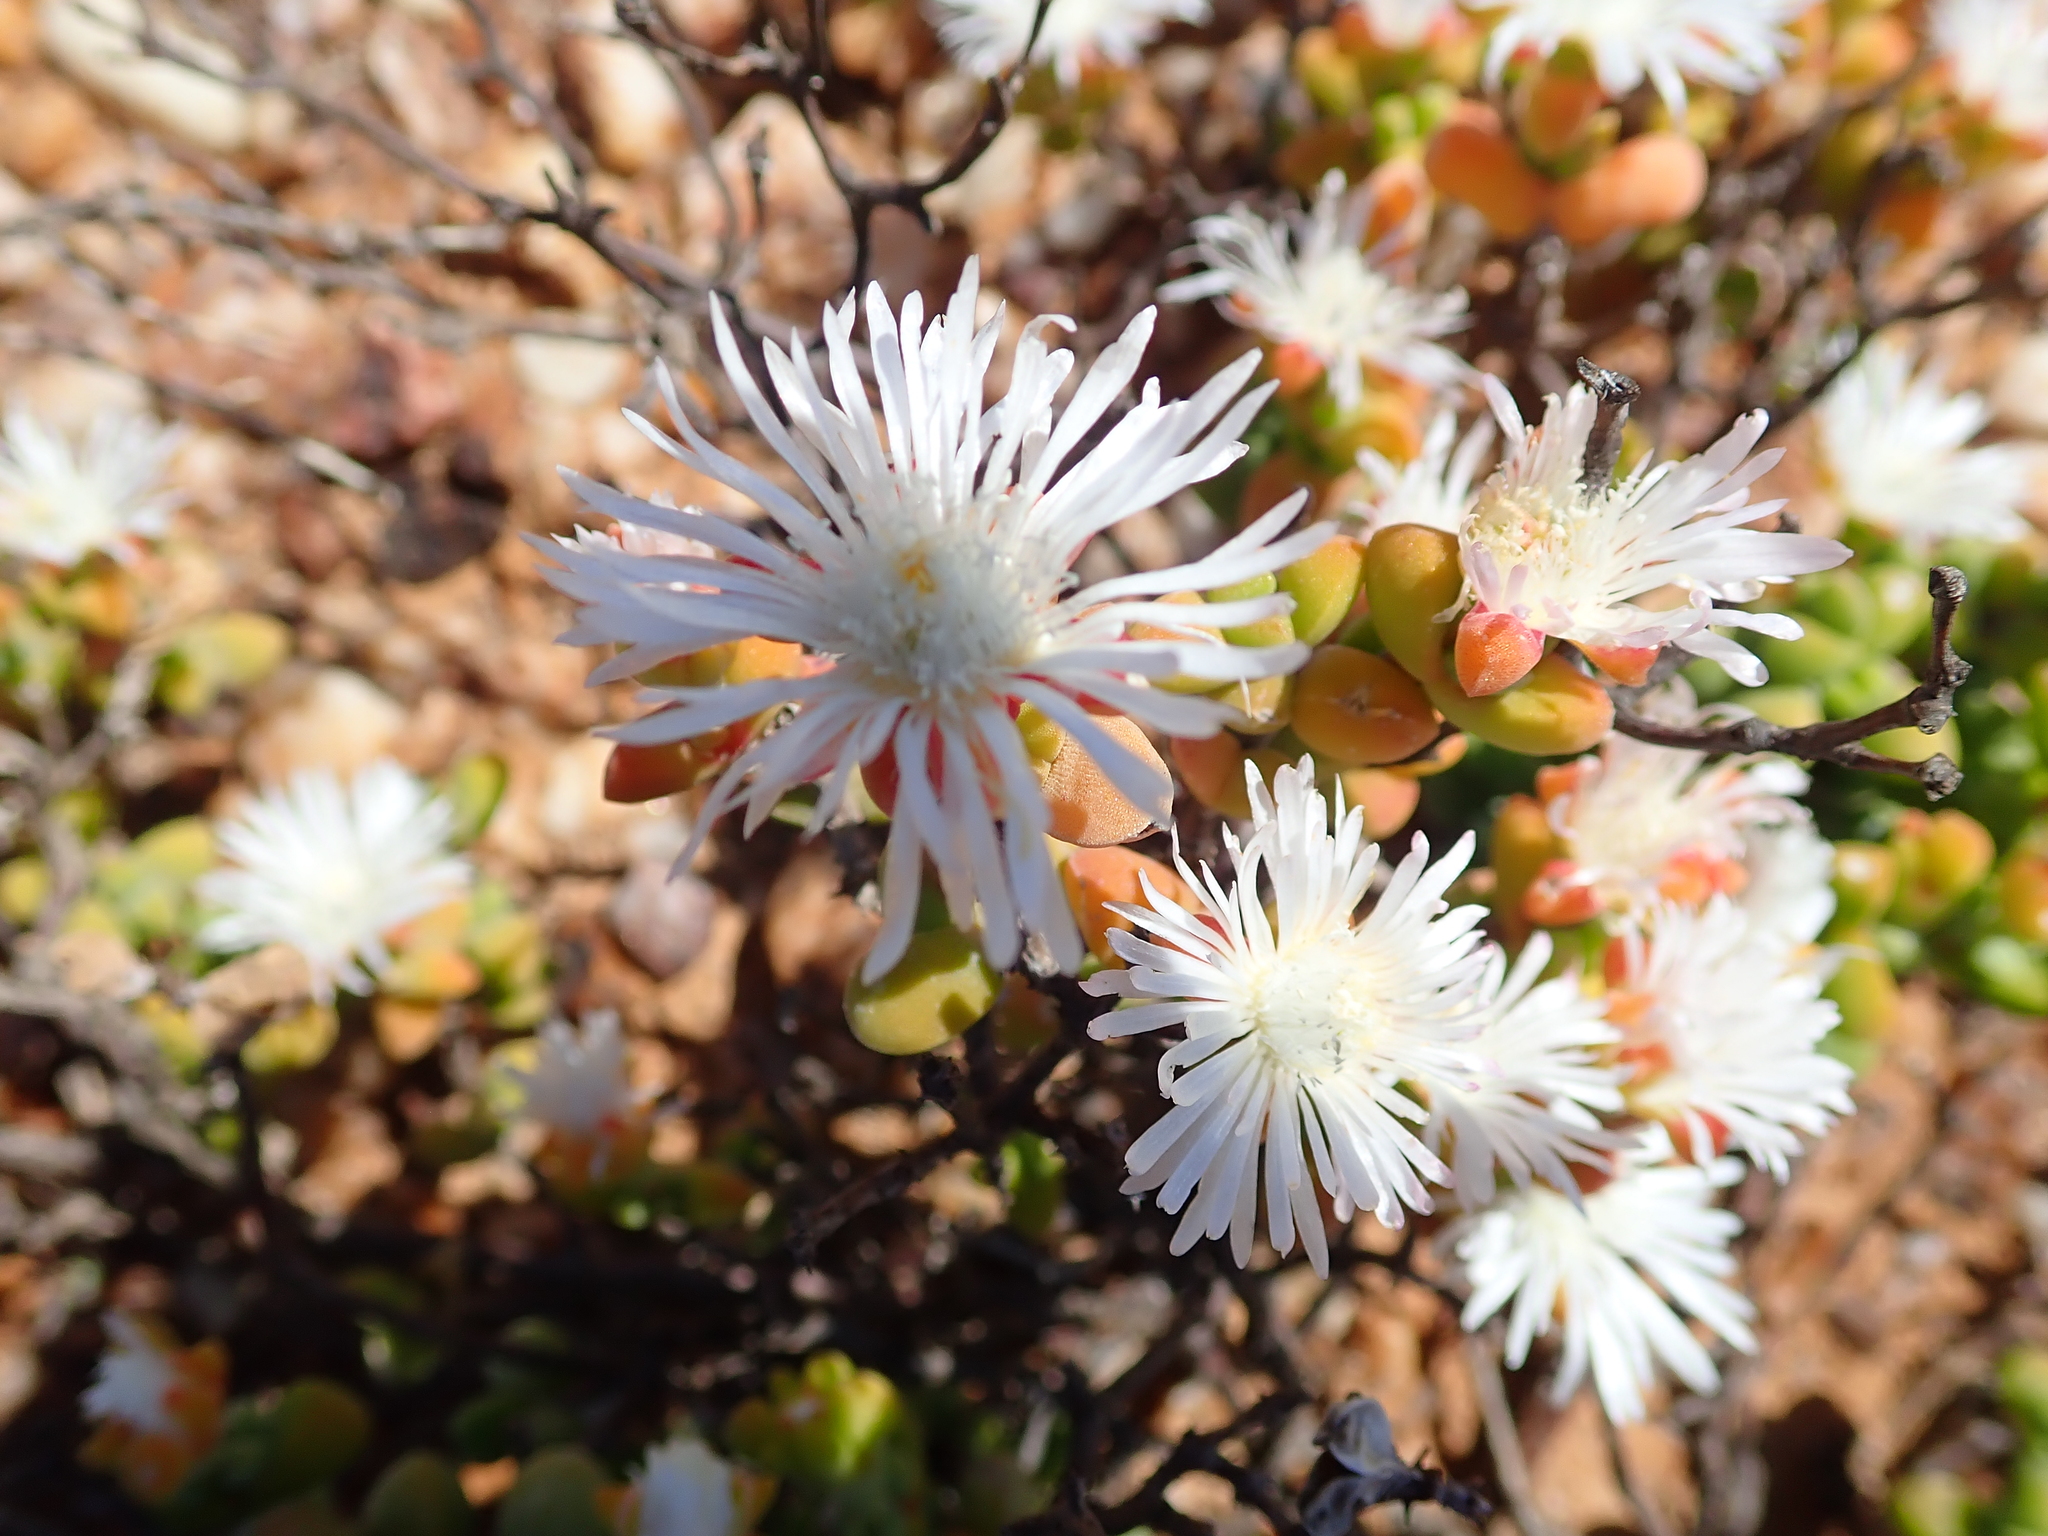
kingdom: Plantae
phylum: Tracheophyta
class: Magnoliopsida
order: Caryophyllales
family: Aizoaceae
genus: Drosanthemopsis
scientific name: Drosanthemopsis diversifolia
